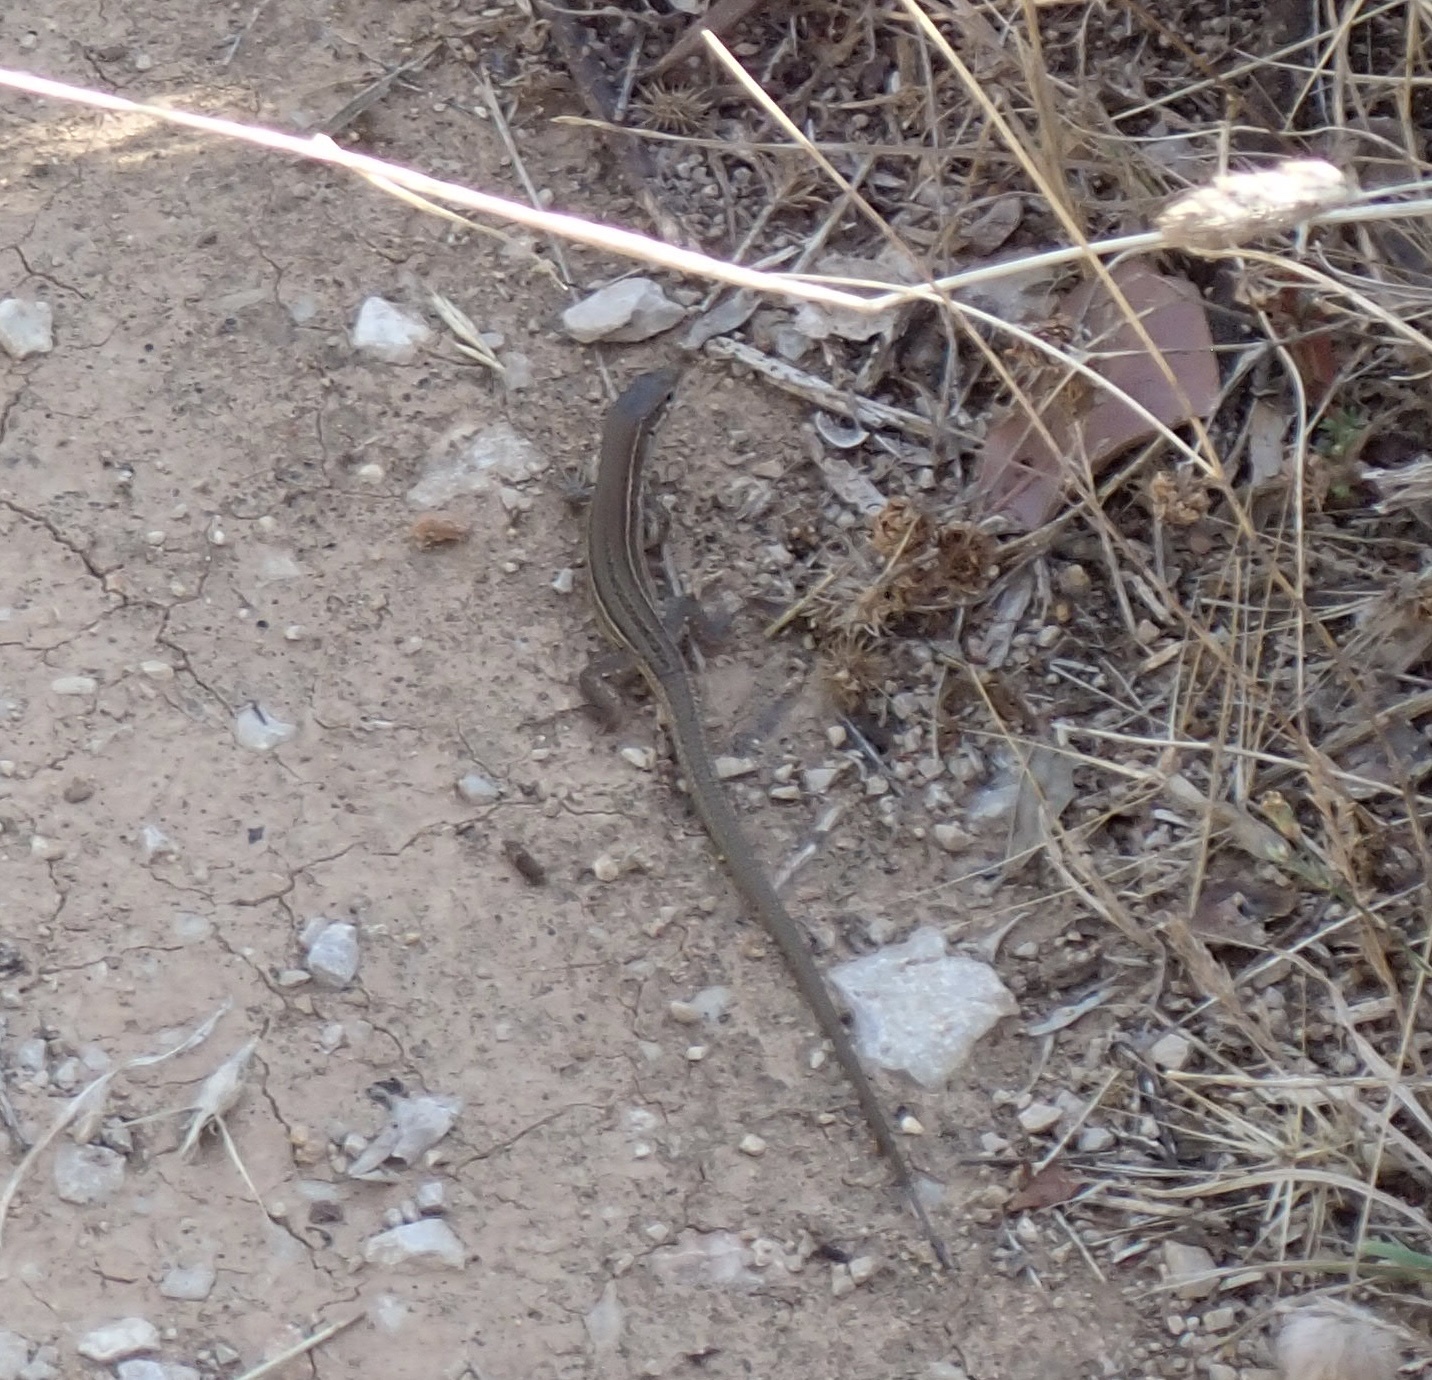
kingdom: Animalia
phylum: Chordata
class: Squamata
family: Lacertidae
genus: Podarcis
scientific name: Podarcis melisellensis
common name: Dalmatian wall lizard
